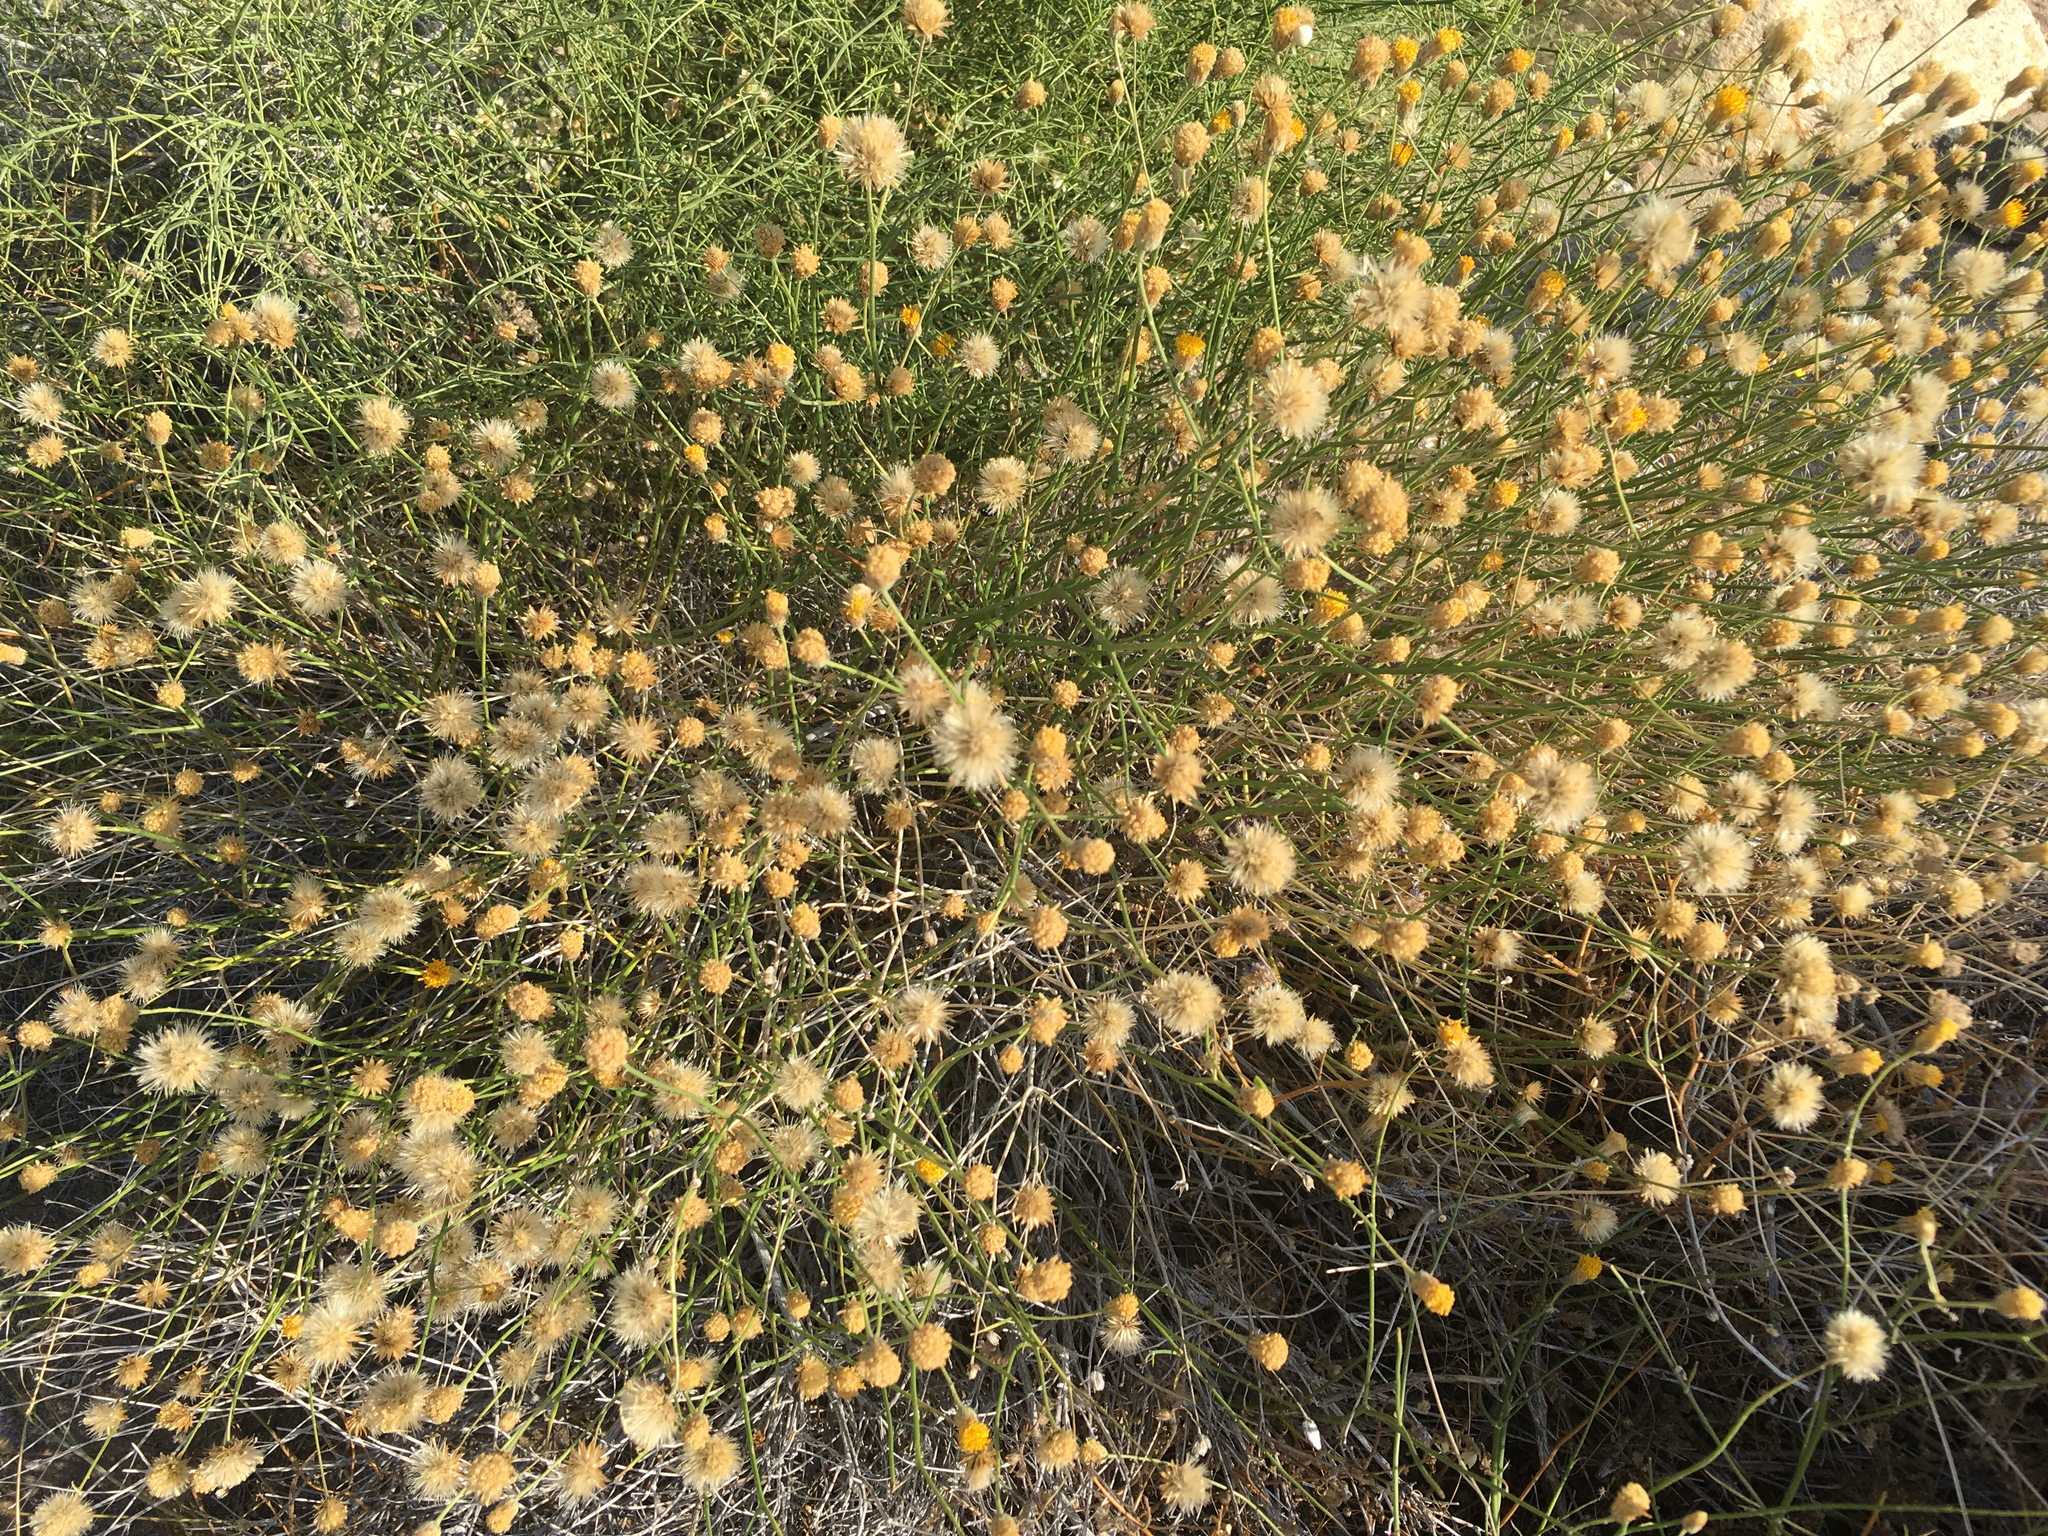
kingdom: Plantae
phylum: Tracheophyta
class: Magnoliopsida
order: Asterales
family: Asteraceae
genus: Bebbia
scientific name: Bebbia juncea
